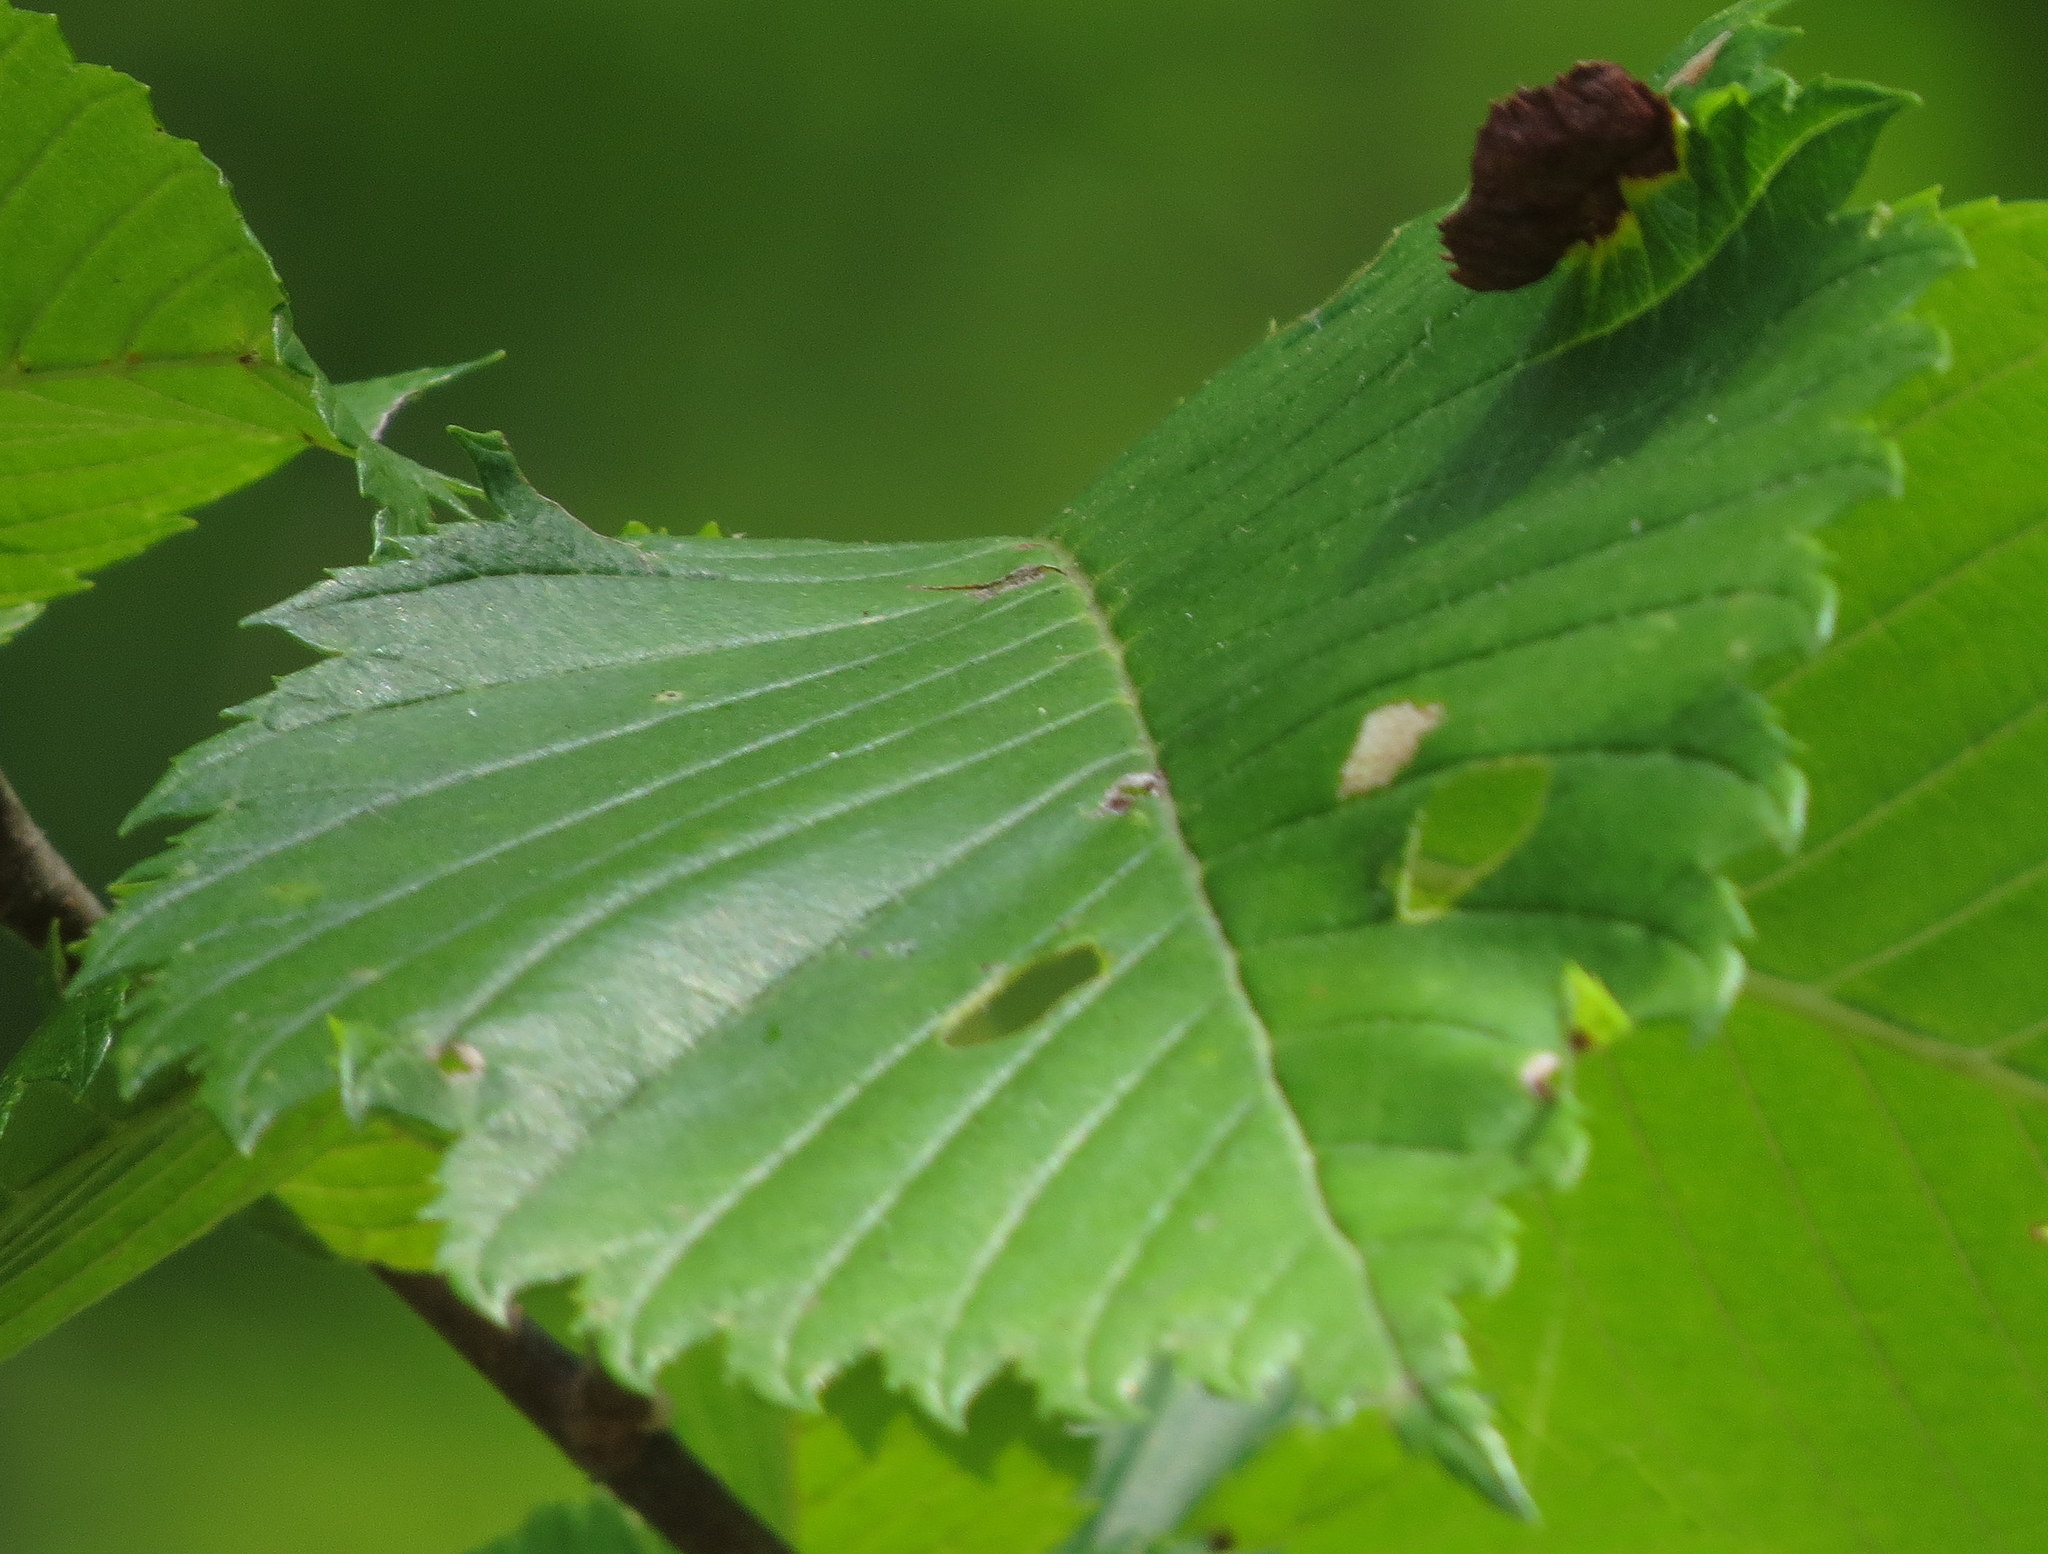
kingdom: Animalia
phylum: Arthropoda
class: Insecta
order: Hemiptera
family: Aphididae
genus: Colopha
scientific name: Colopha ulmicola
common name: Elm cockscombgall aphid
